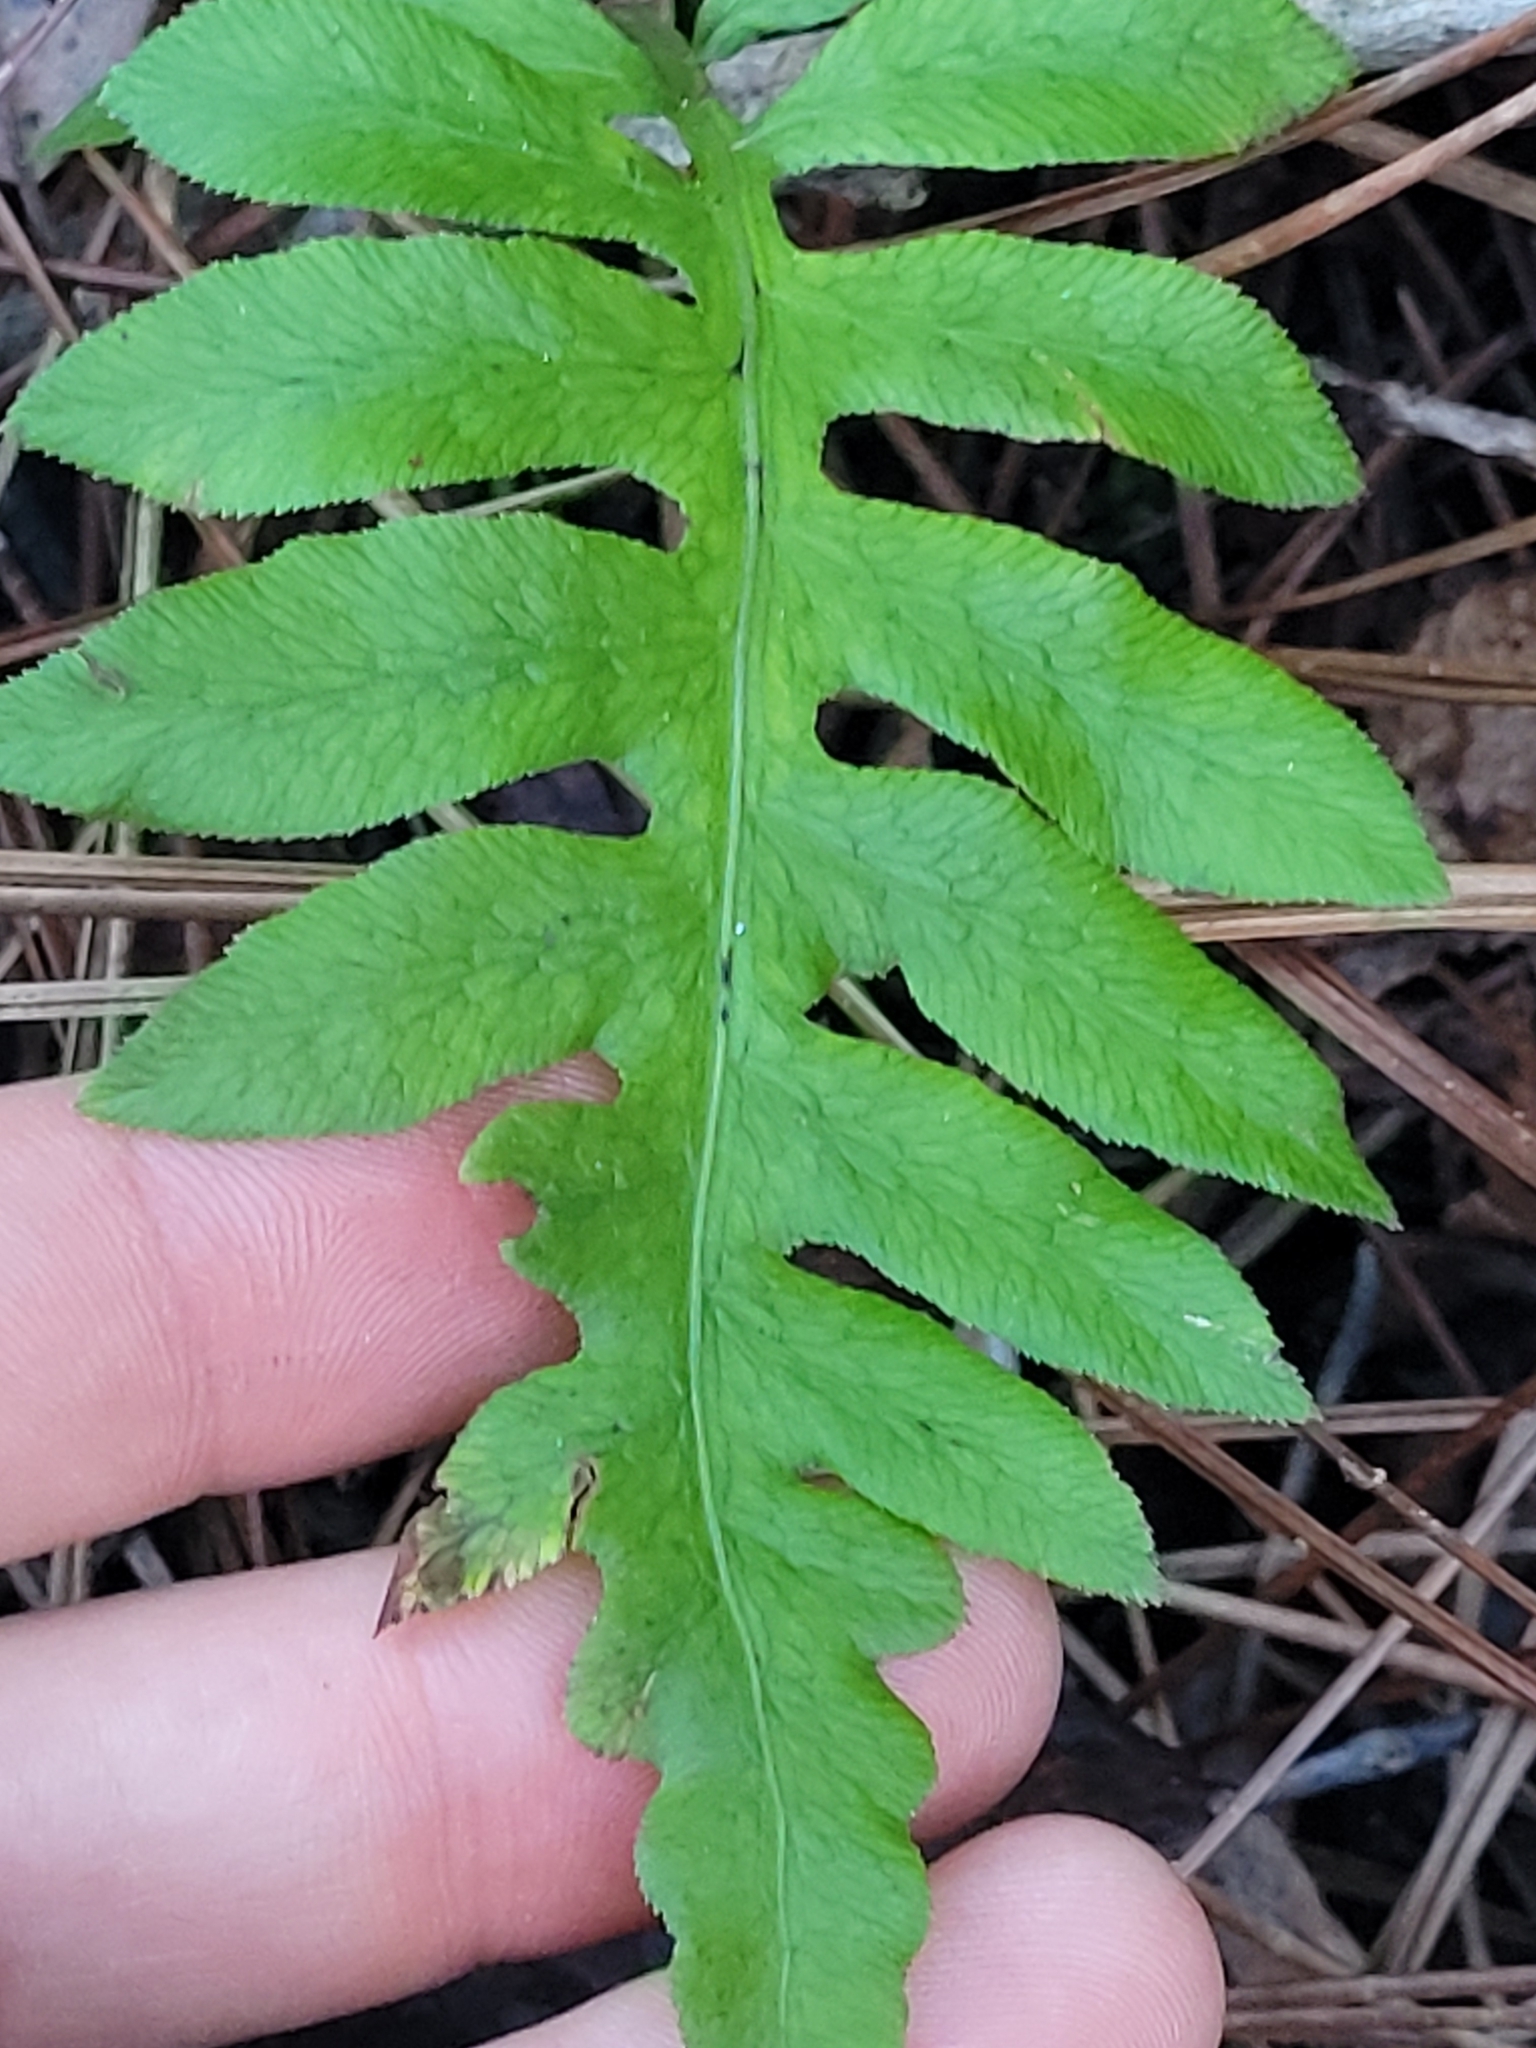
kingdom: Plantae
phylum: Tracheophyta
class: Polypodiopsida
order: Polypodiales
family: Blechnaceae
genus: Lorinseria
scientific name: Lorinseria areolata
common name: Dwarf chain fern
